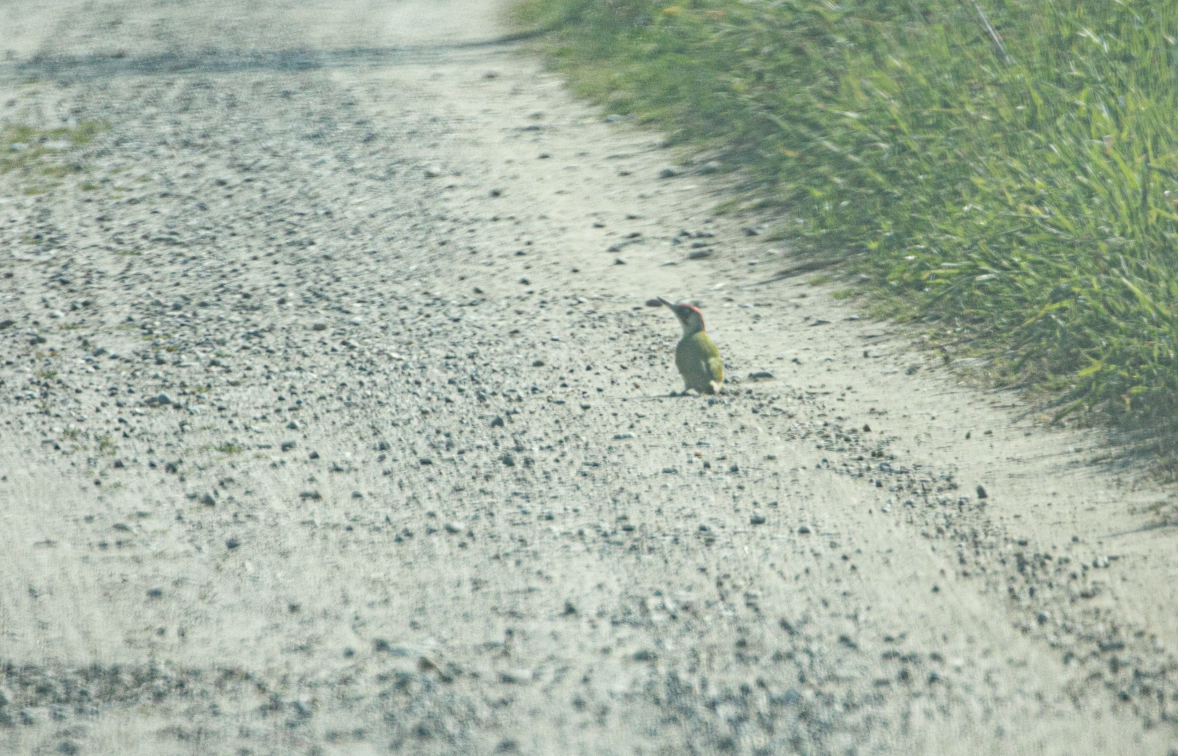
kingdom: Animalia
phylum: Chordata
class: Aves
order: Piciformes
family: Picidae
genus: Picus
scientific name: Picus viridis
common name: European green woodpecker
